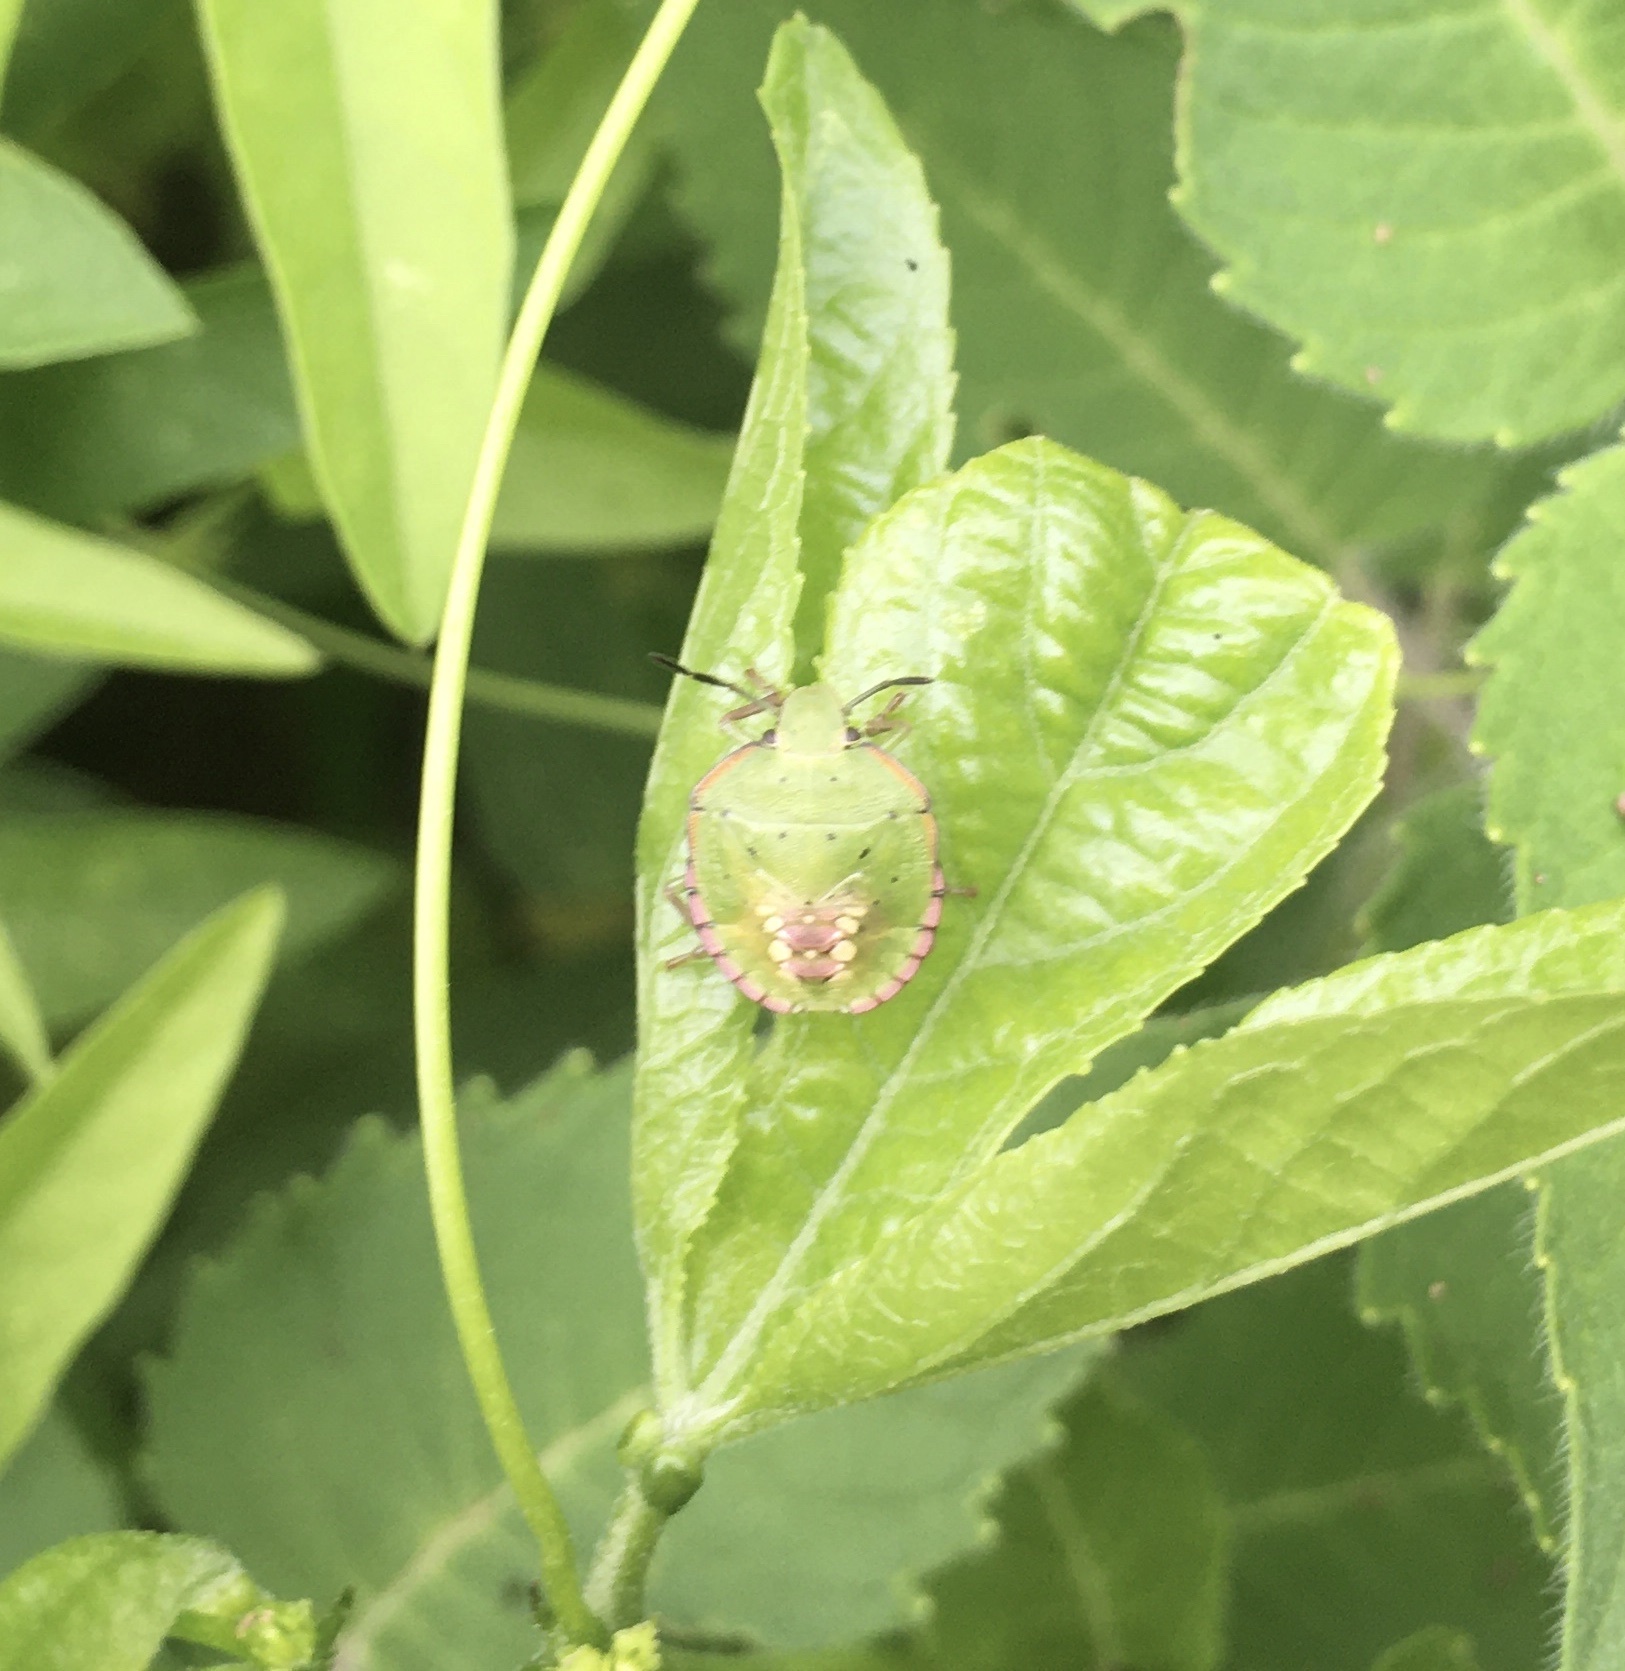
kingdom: Animalia
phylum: Arthropoda
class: Insecta
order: Hemiptera
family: Pentatomidae
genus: Nezara
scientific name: Nezara viridula
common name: Southern green stink bug
